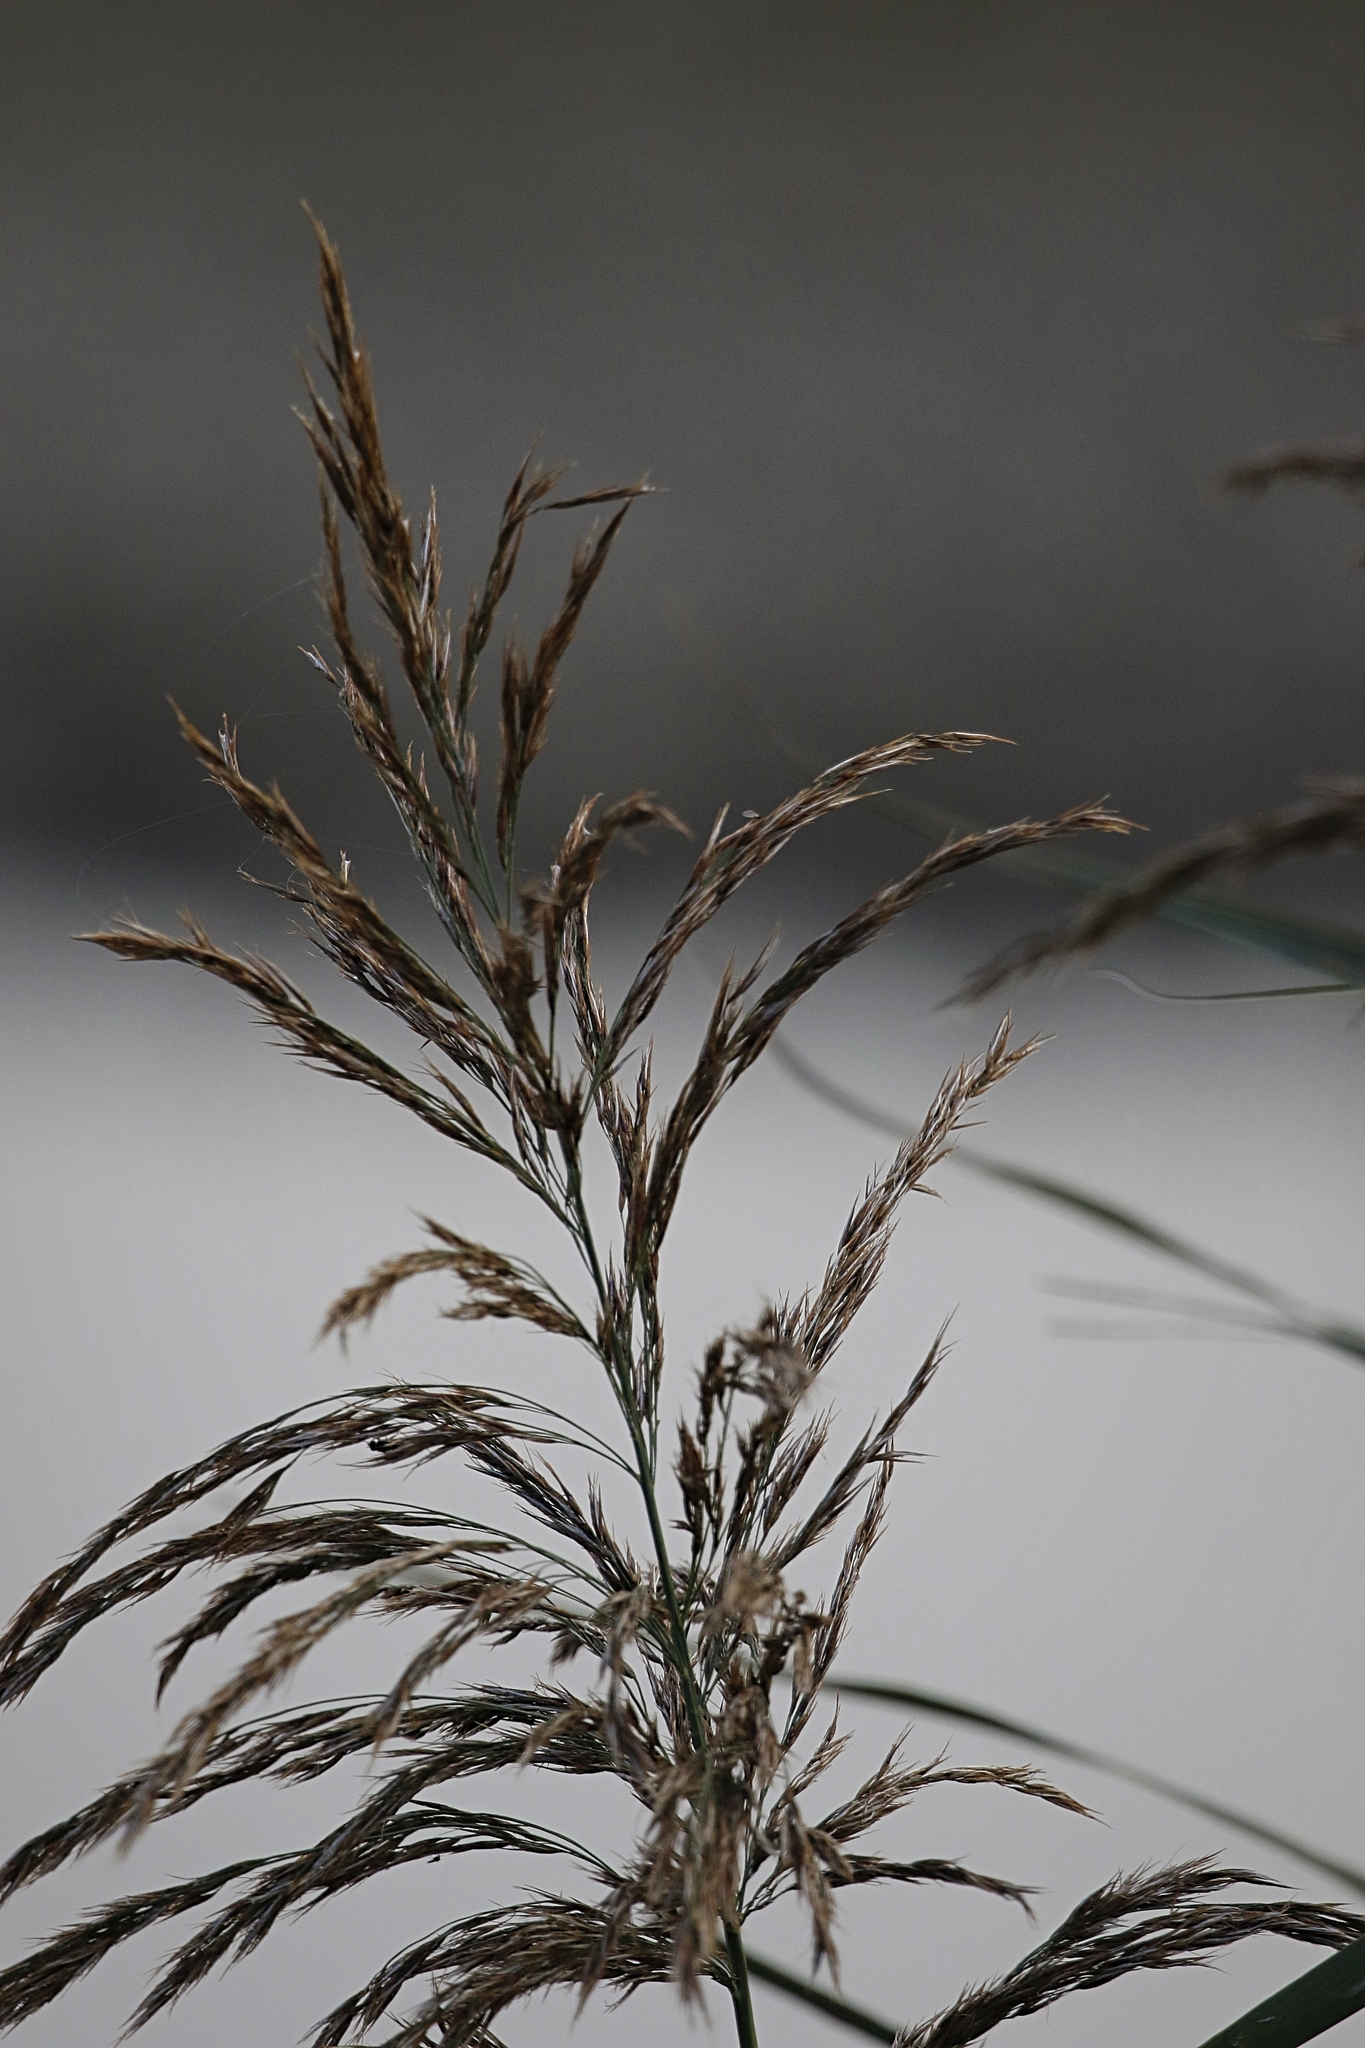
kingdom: Plantae
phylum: Tracheophyta
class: Liliopsida
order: Poales
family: Poaceae
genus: Phragmites
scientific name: Phragmites australis
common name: Common reed
